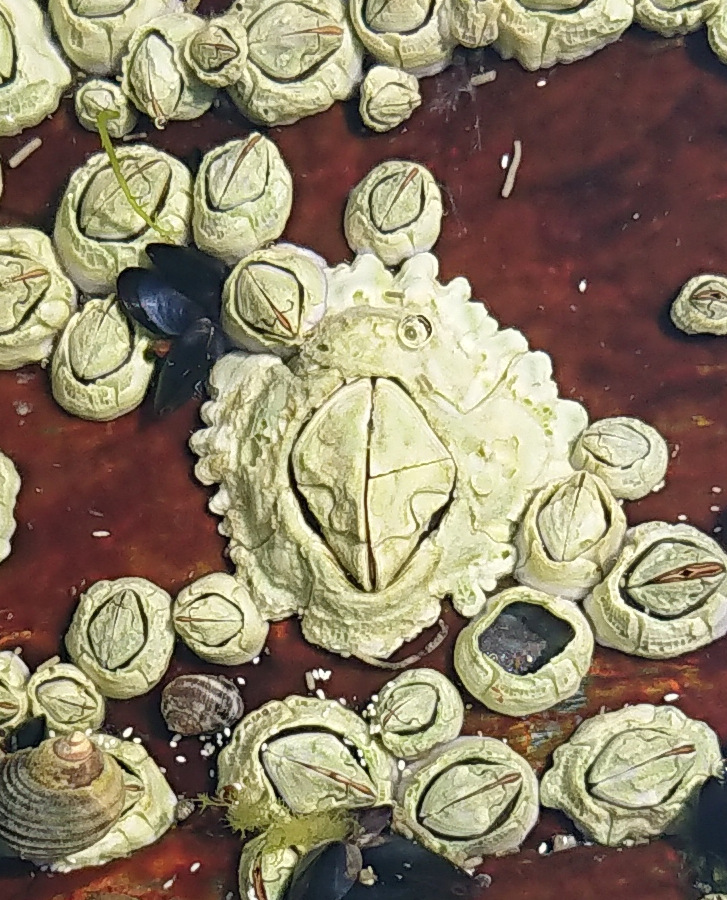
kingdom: Animalia
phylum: Arthropoda
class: Maxillopoda
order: Sessilia
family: Archaeobalanidae
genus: Semibalanus
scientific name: Semibalanus balanoides
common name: Acorn barnacle
